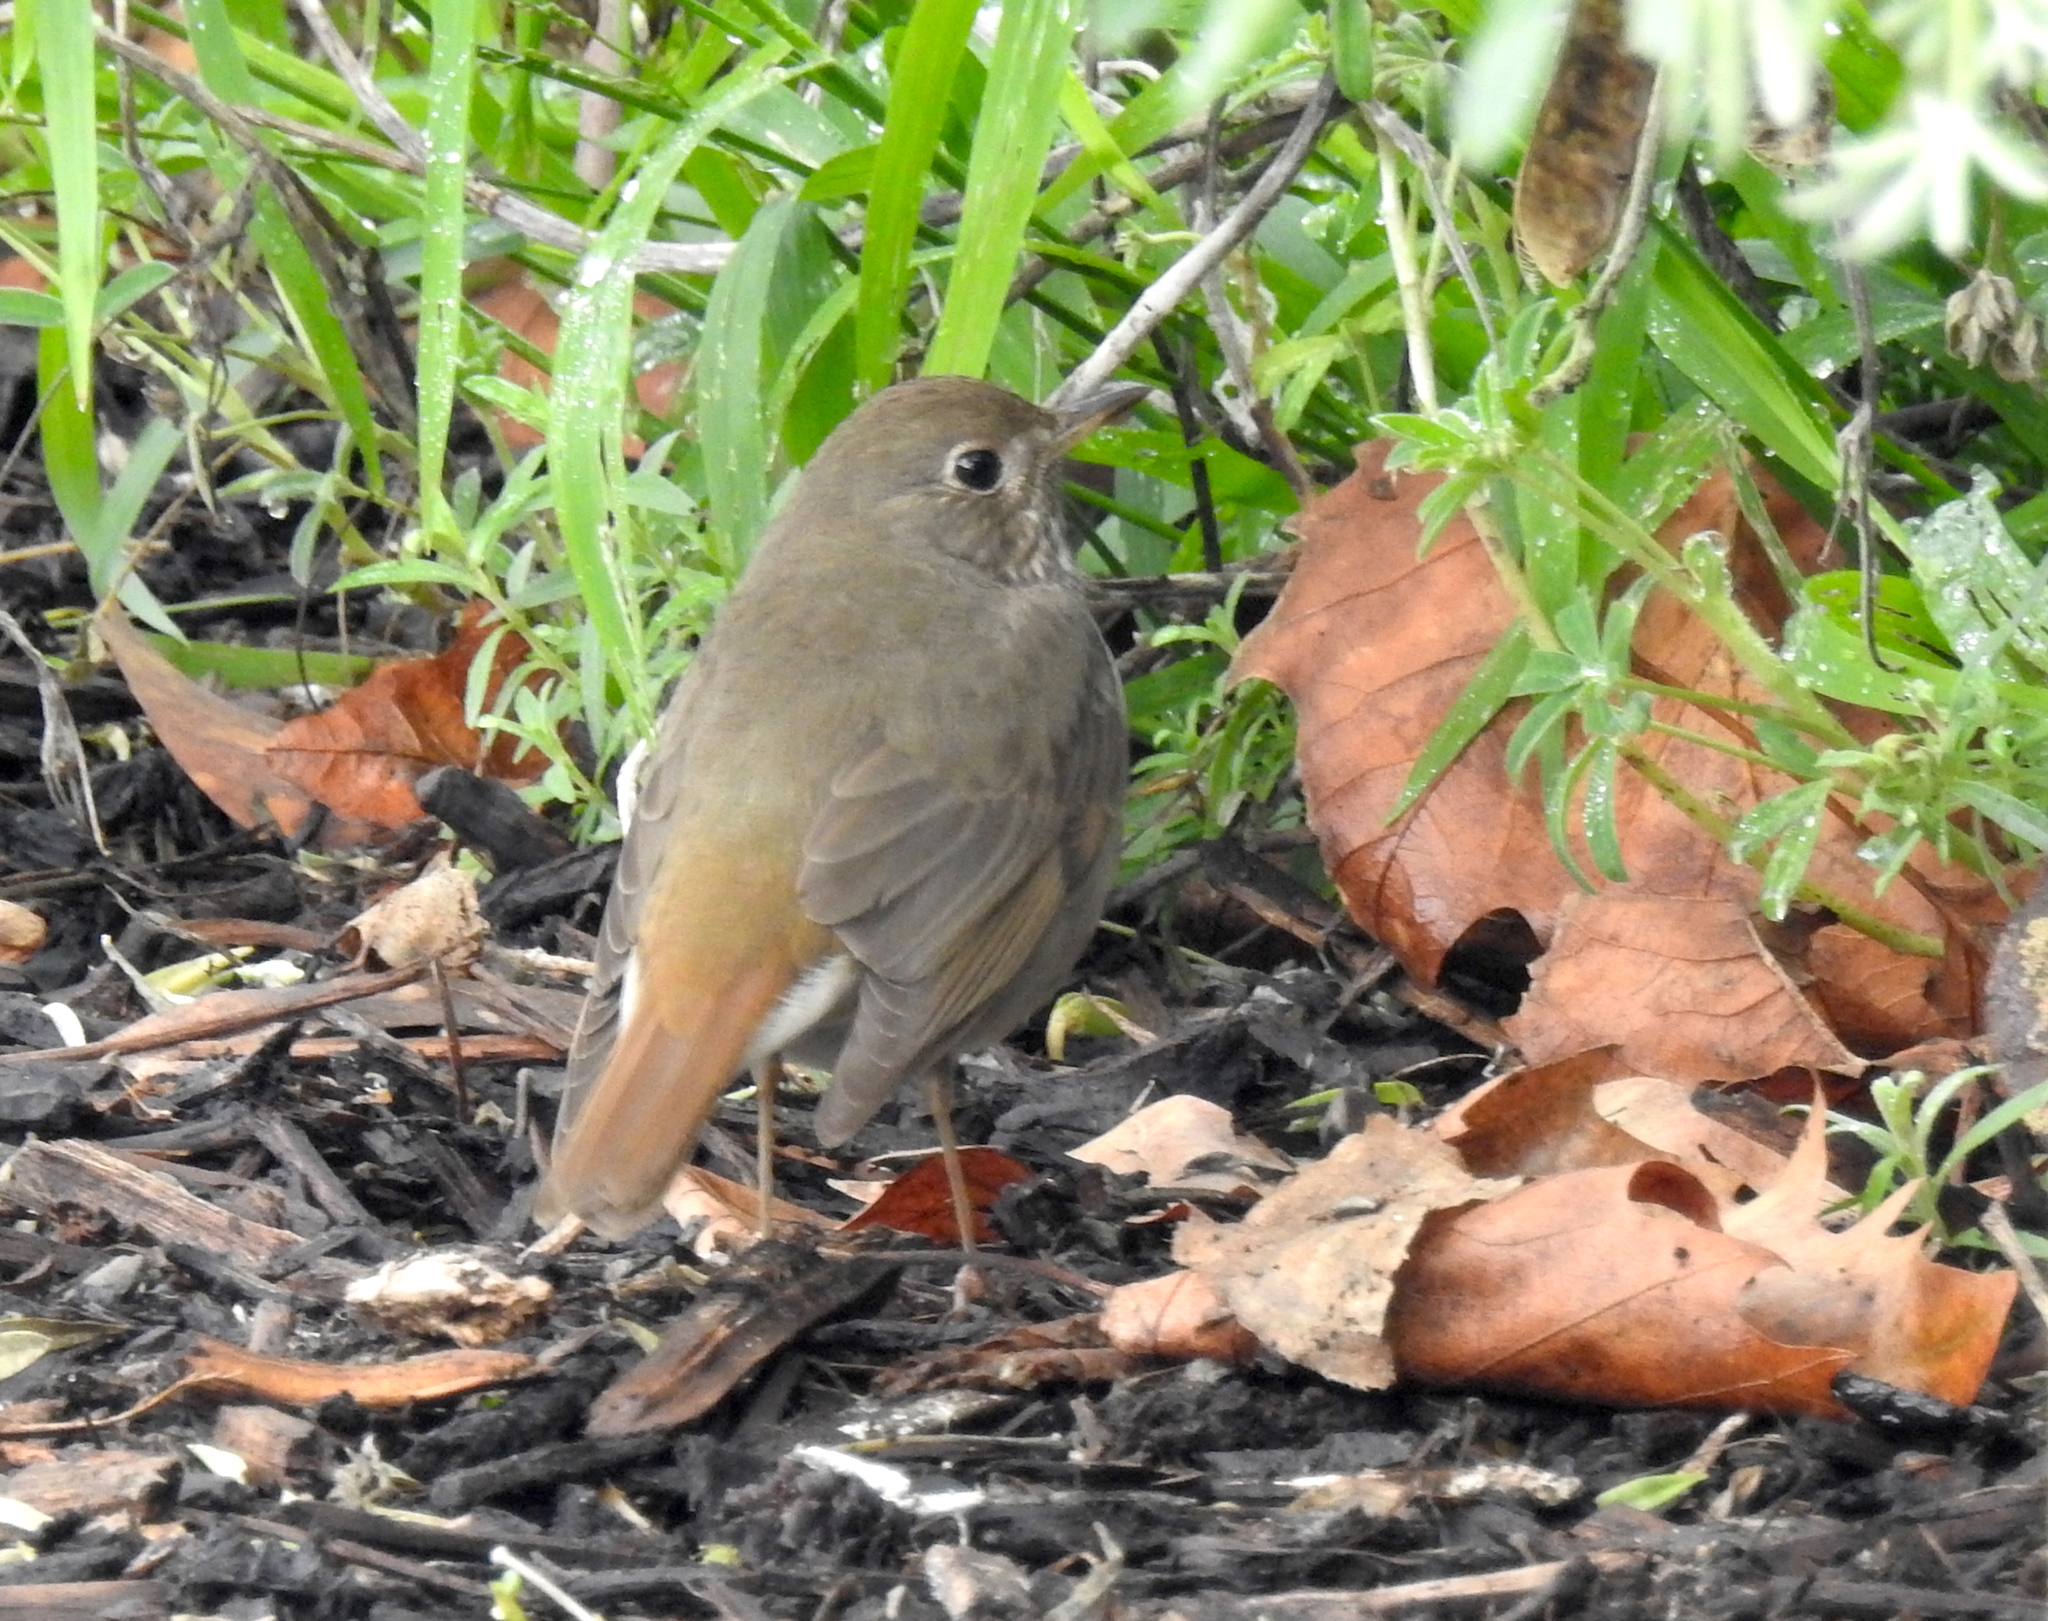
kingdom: Animalia
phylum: Chordata
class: Aves
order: Passeriformes
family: Turdidae
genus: Catharus
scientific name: Catharus guttatus
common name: Hermit thrush
